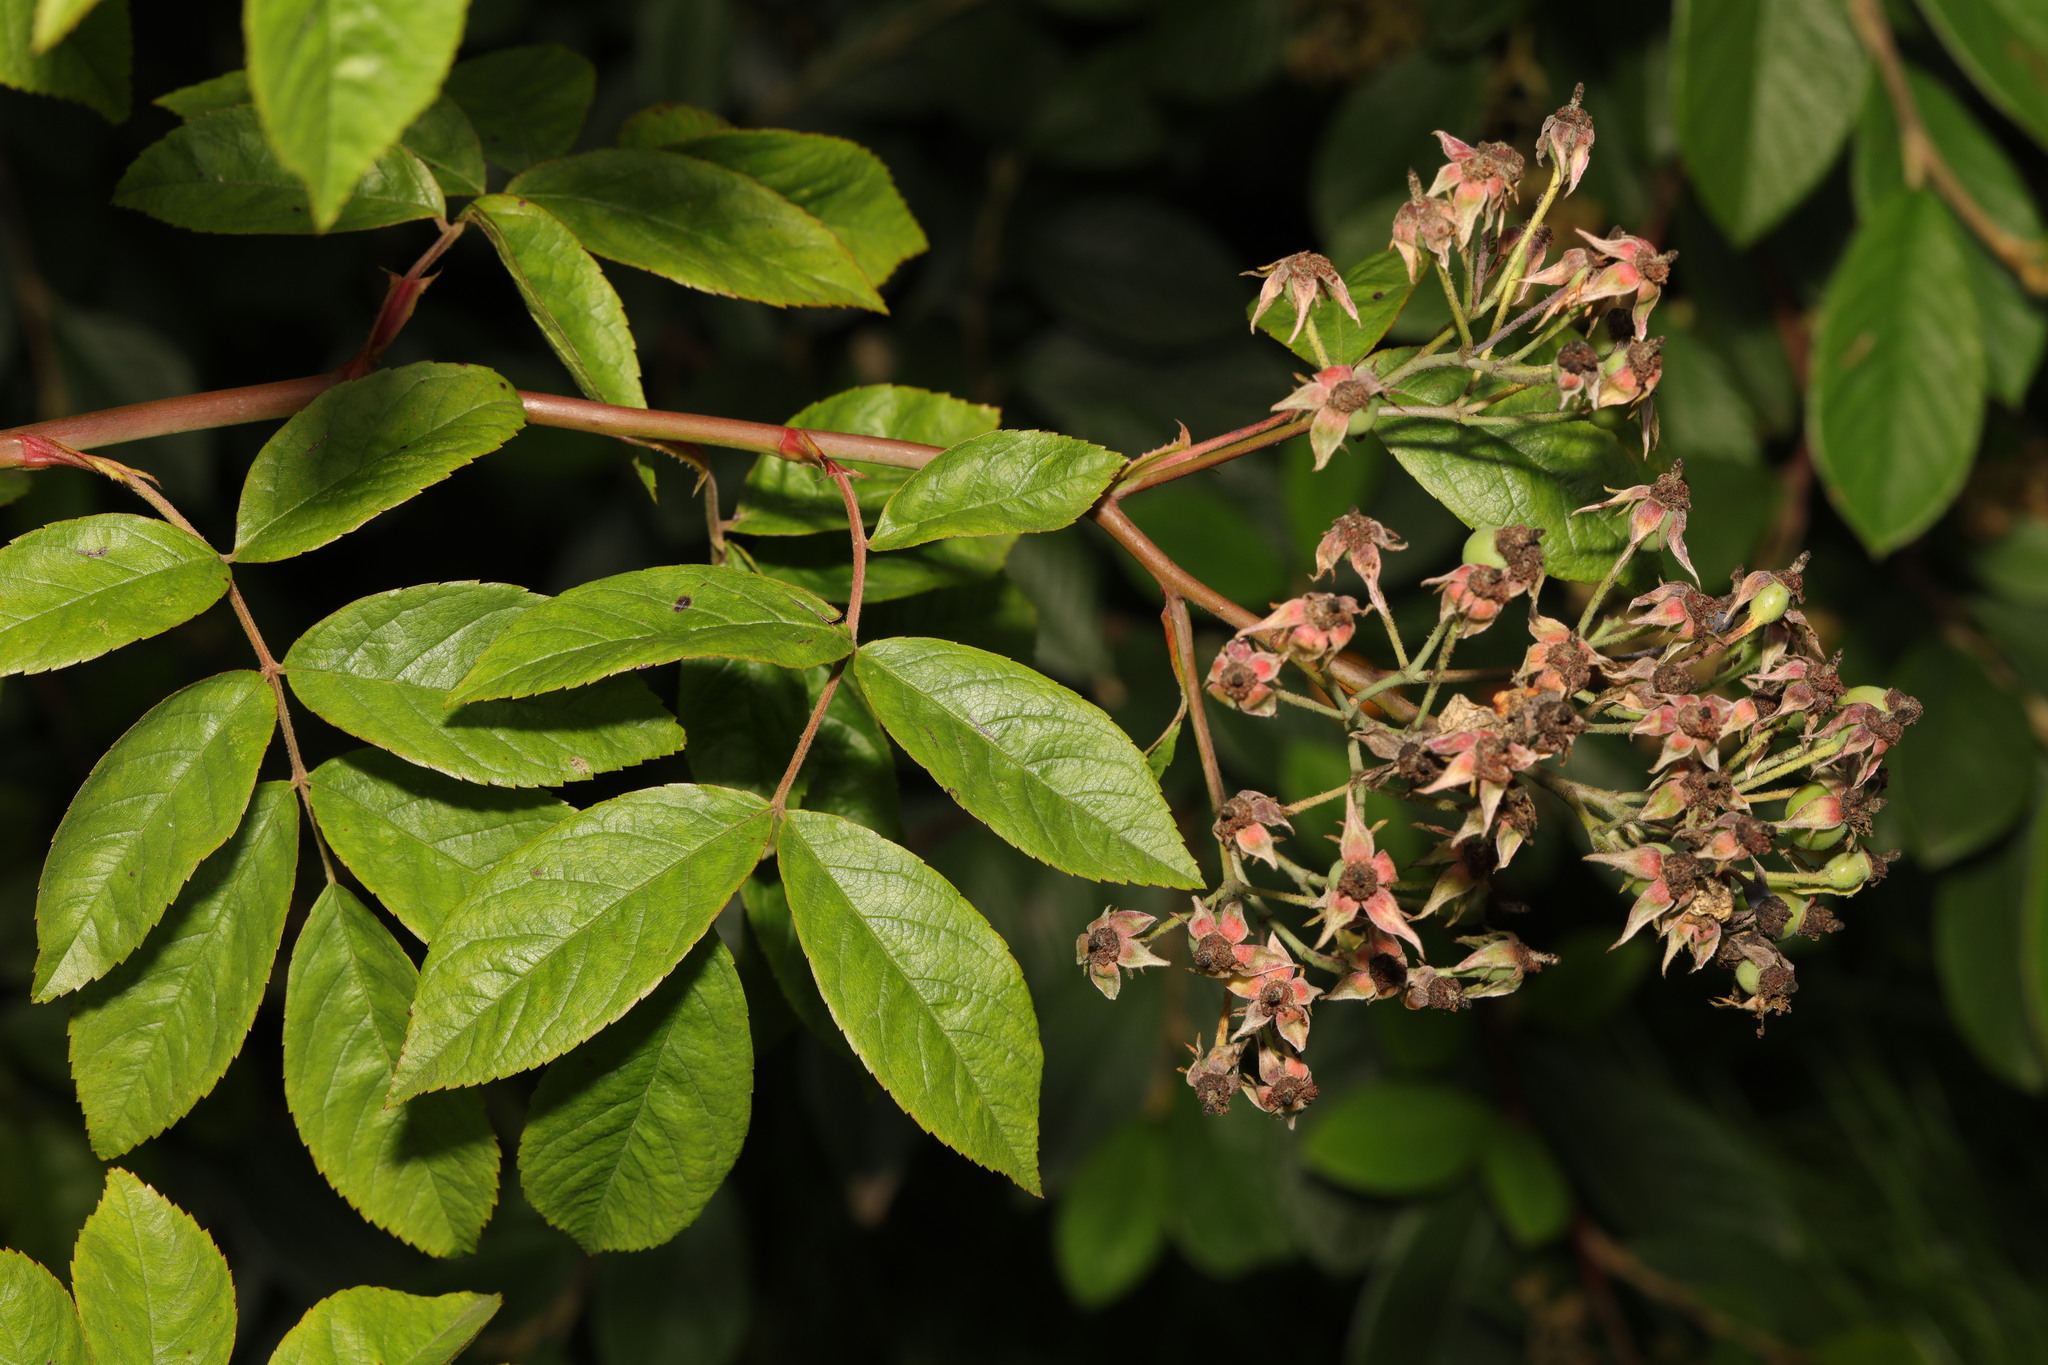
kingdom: Plantae
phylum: Tracheophyta
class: Magnoliopsida
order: Rosales
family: Rosaceae
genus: Rosa
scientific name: Rosa multiflora
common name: Multiflora rose
